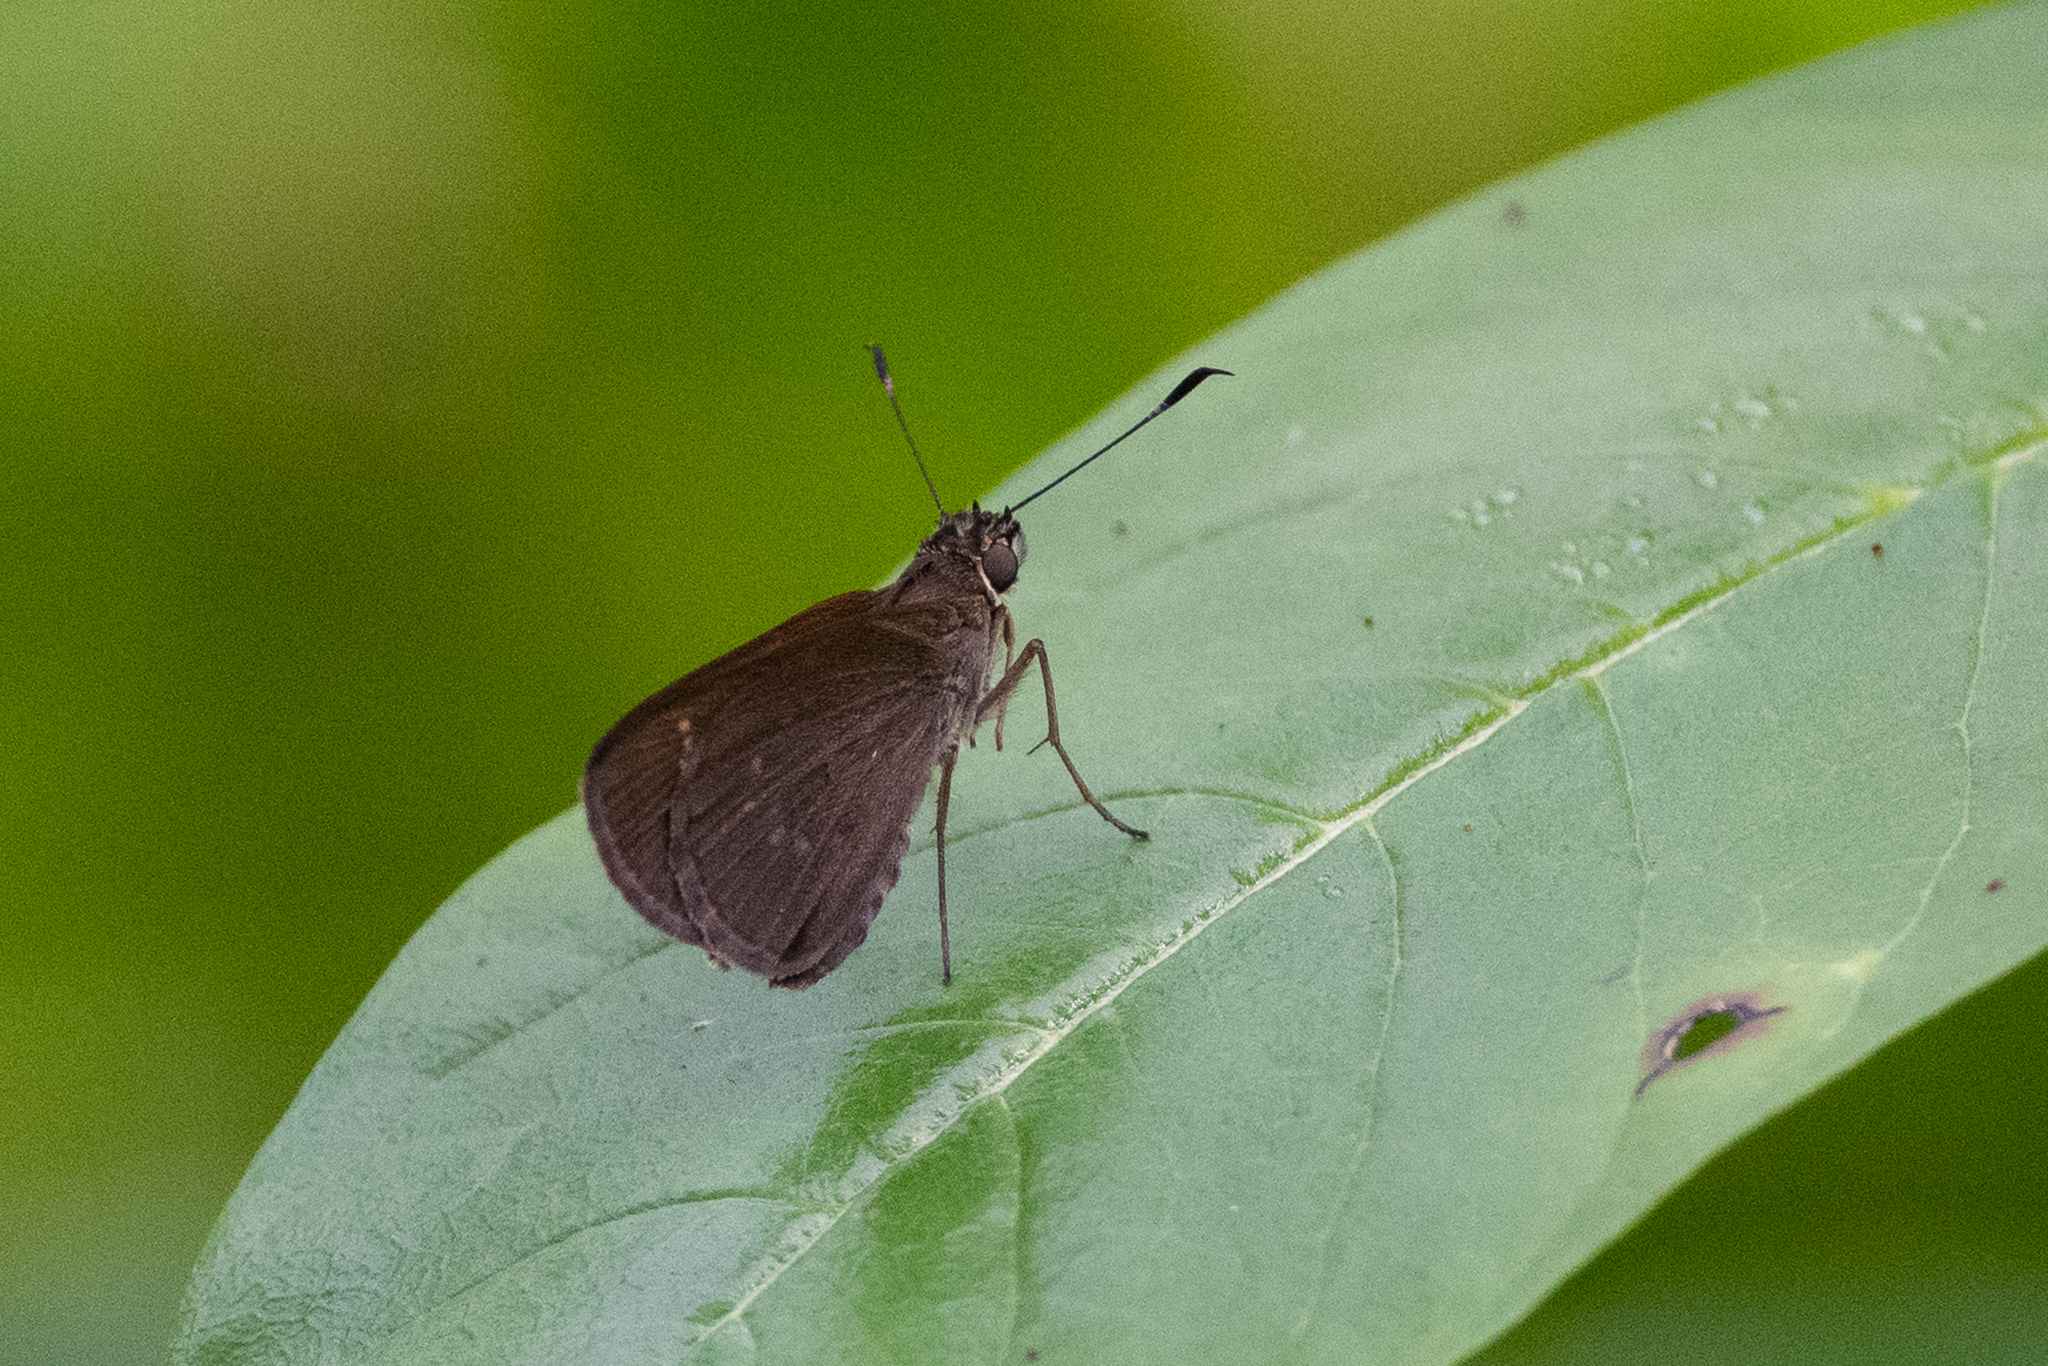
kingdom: Animalia
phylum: Arthropoda
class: Insecta
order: Lepidoptera
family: Hesperiidae
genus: Cymaenes
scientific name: Cymaenes tripunctus
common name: Dingy dotted skipper
